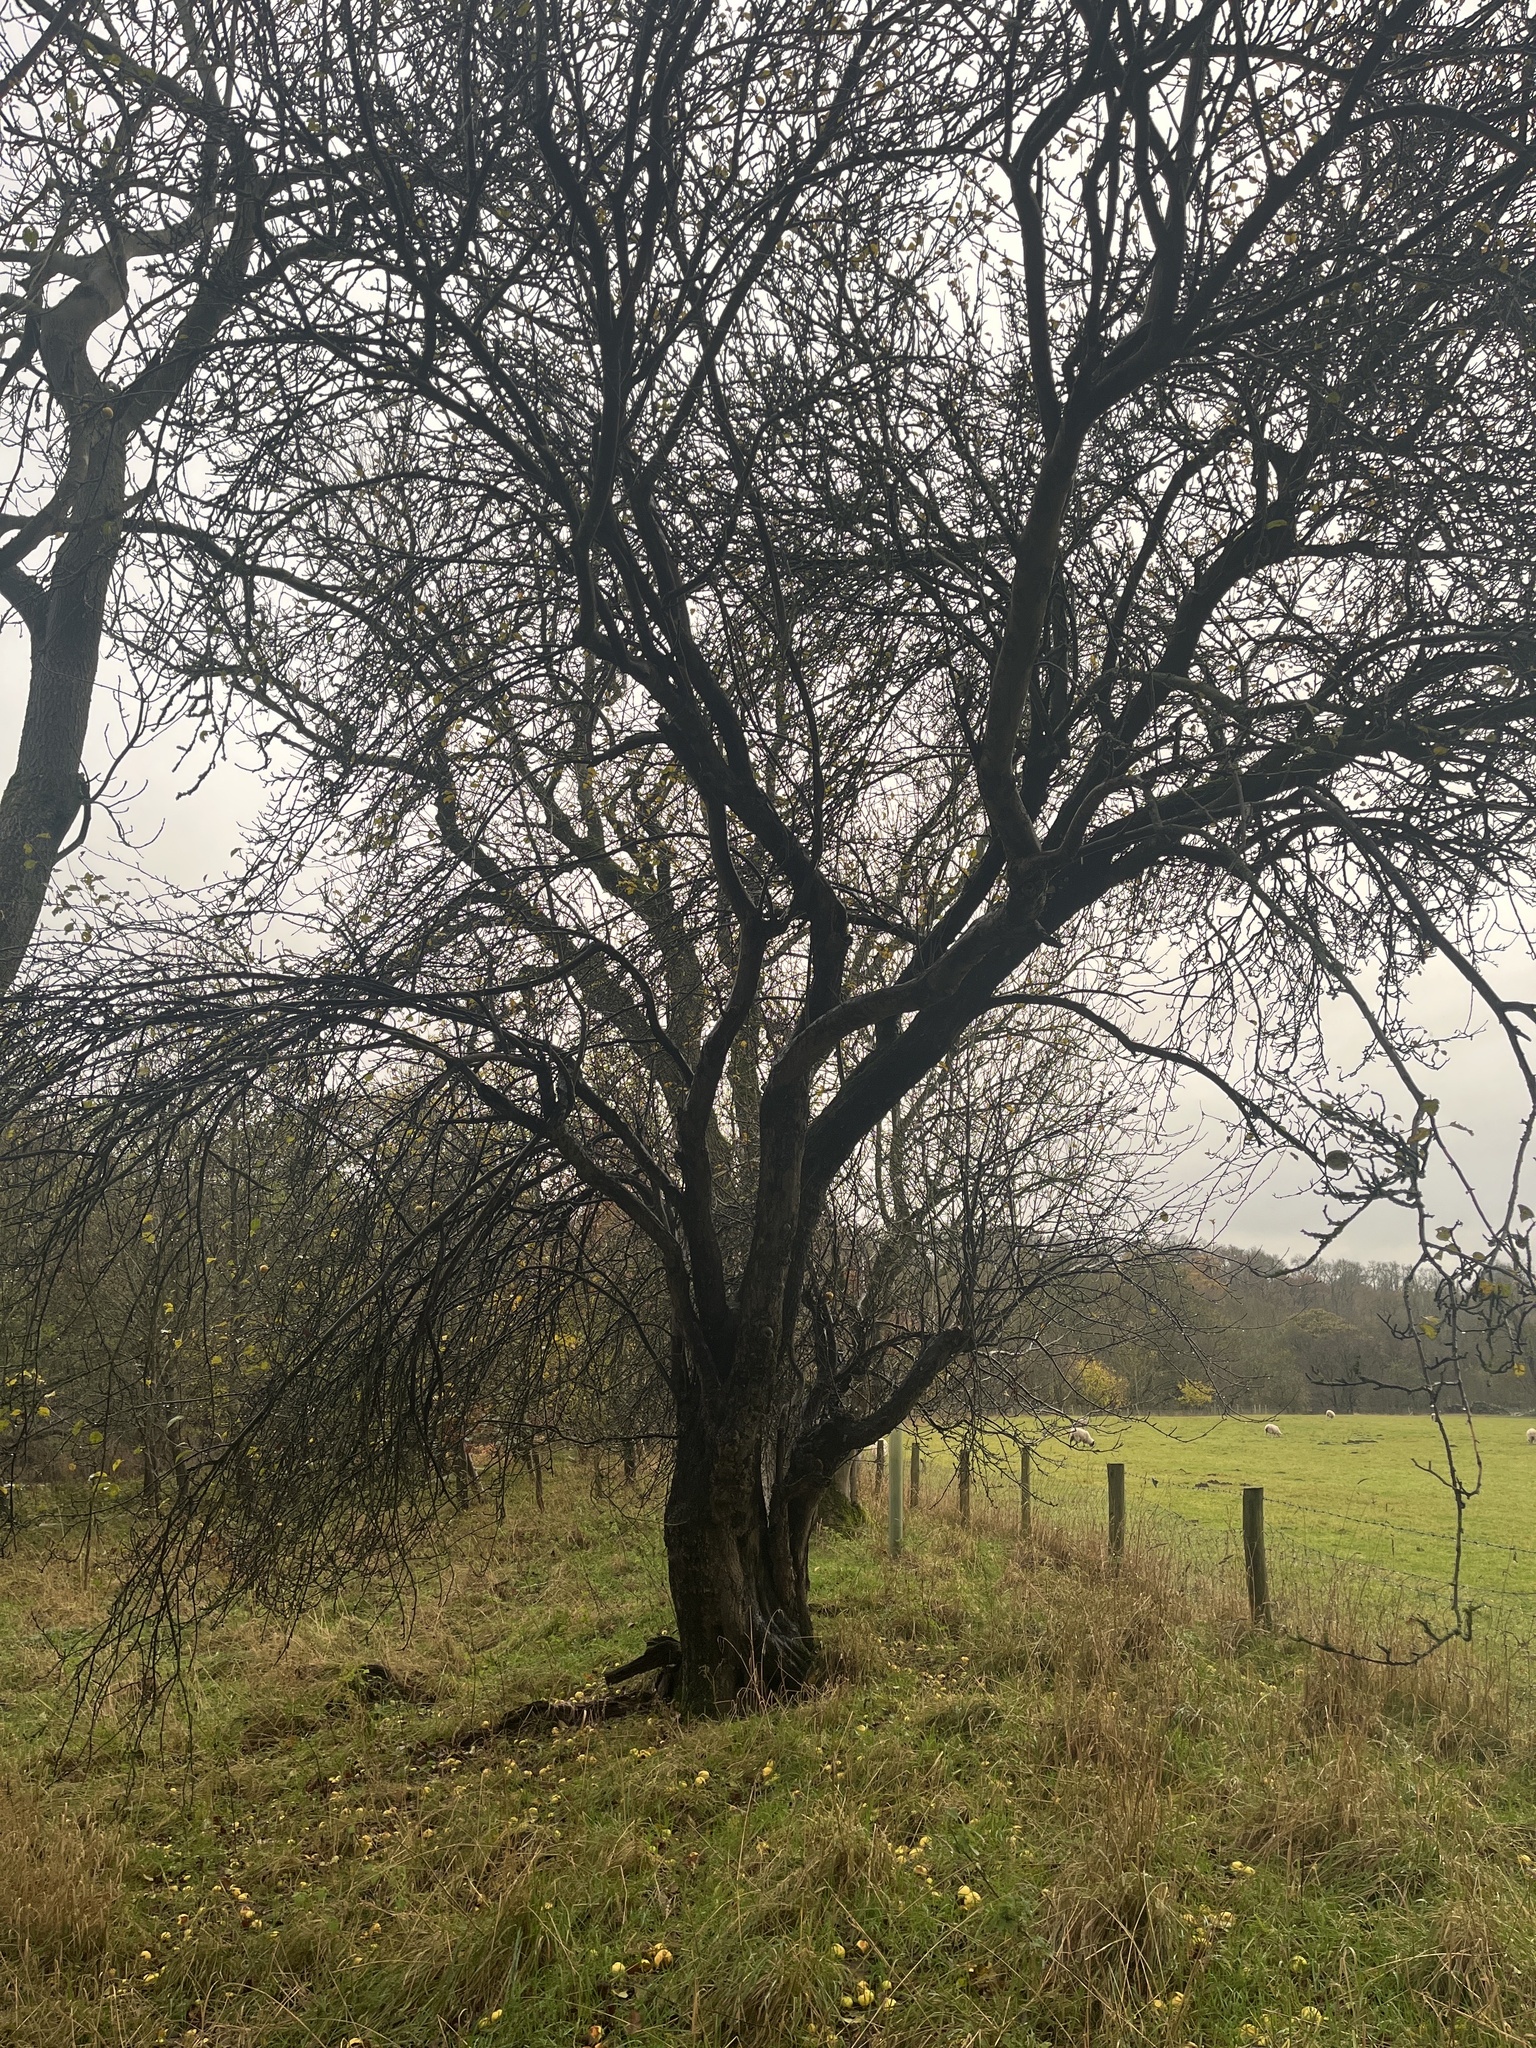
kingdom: Plantae
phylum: Tracheophyta
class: Magnoliopsida
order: Rosales
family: Rosaceae
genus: Malus
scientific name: Malus sylvestris
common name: Crab apple
